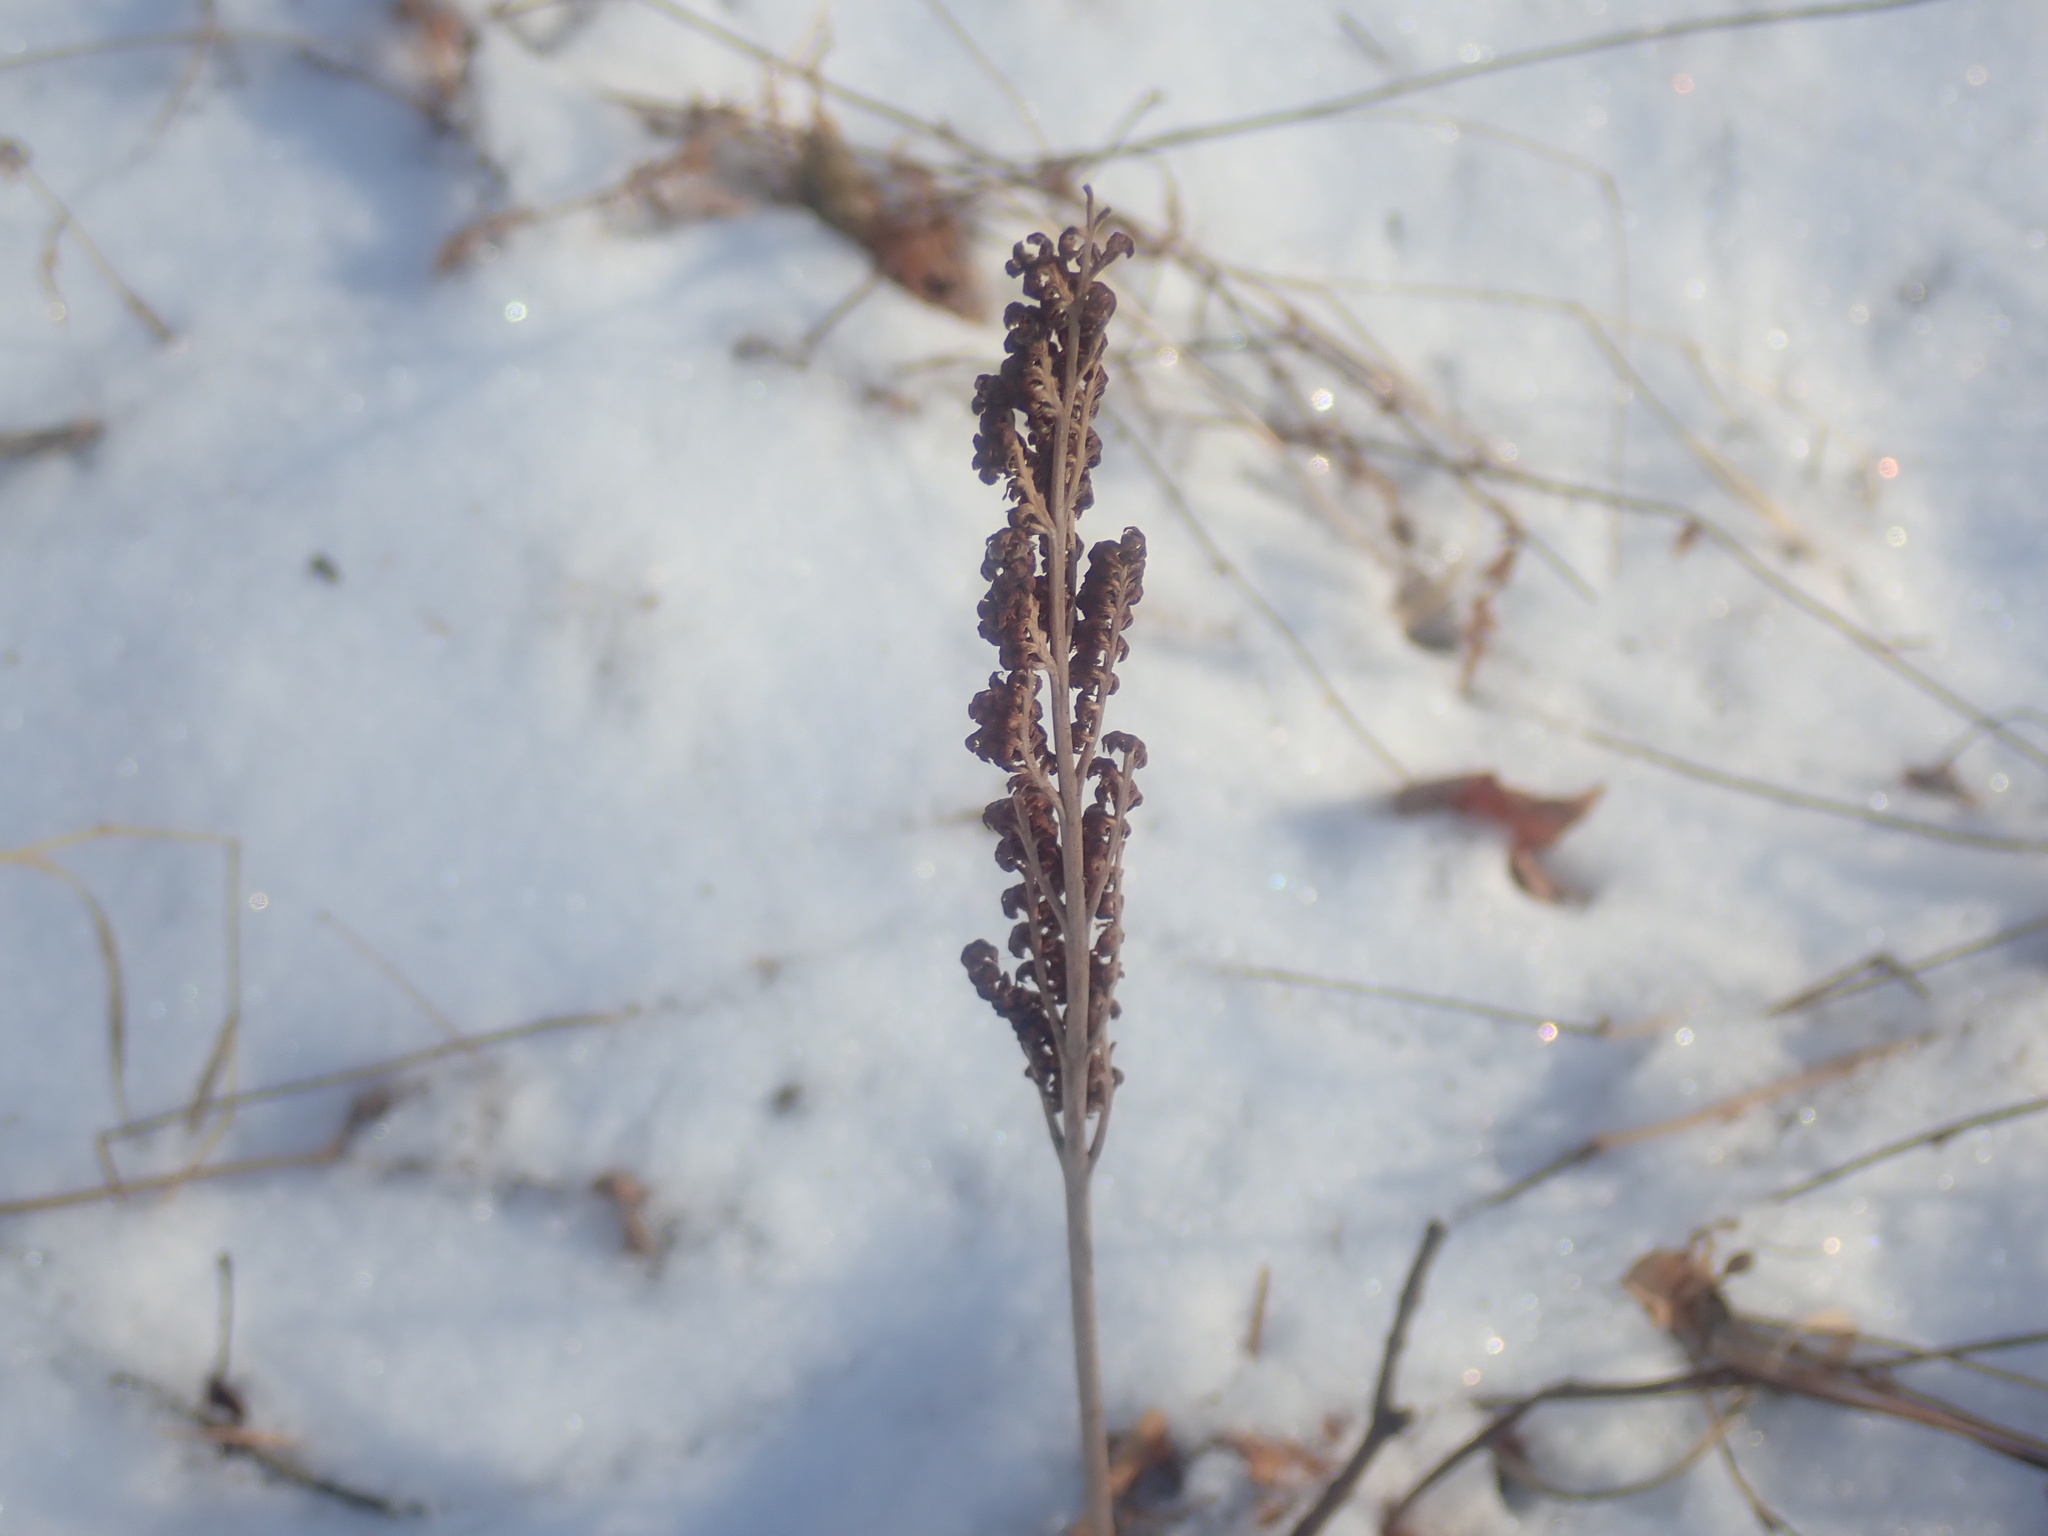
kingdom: Plantae
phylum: Tracheophyta
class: Polypodiopsida
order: Polypodiales
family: Onocleaceae
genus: Onoclea
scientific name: Onoclea sensibilis
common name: Sensitive fern
